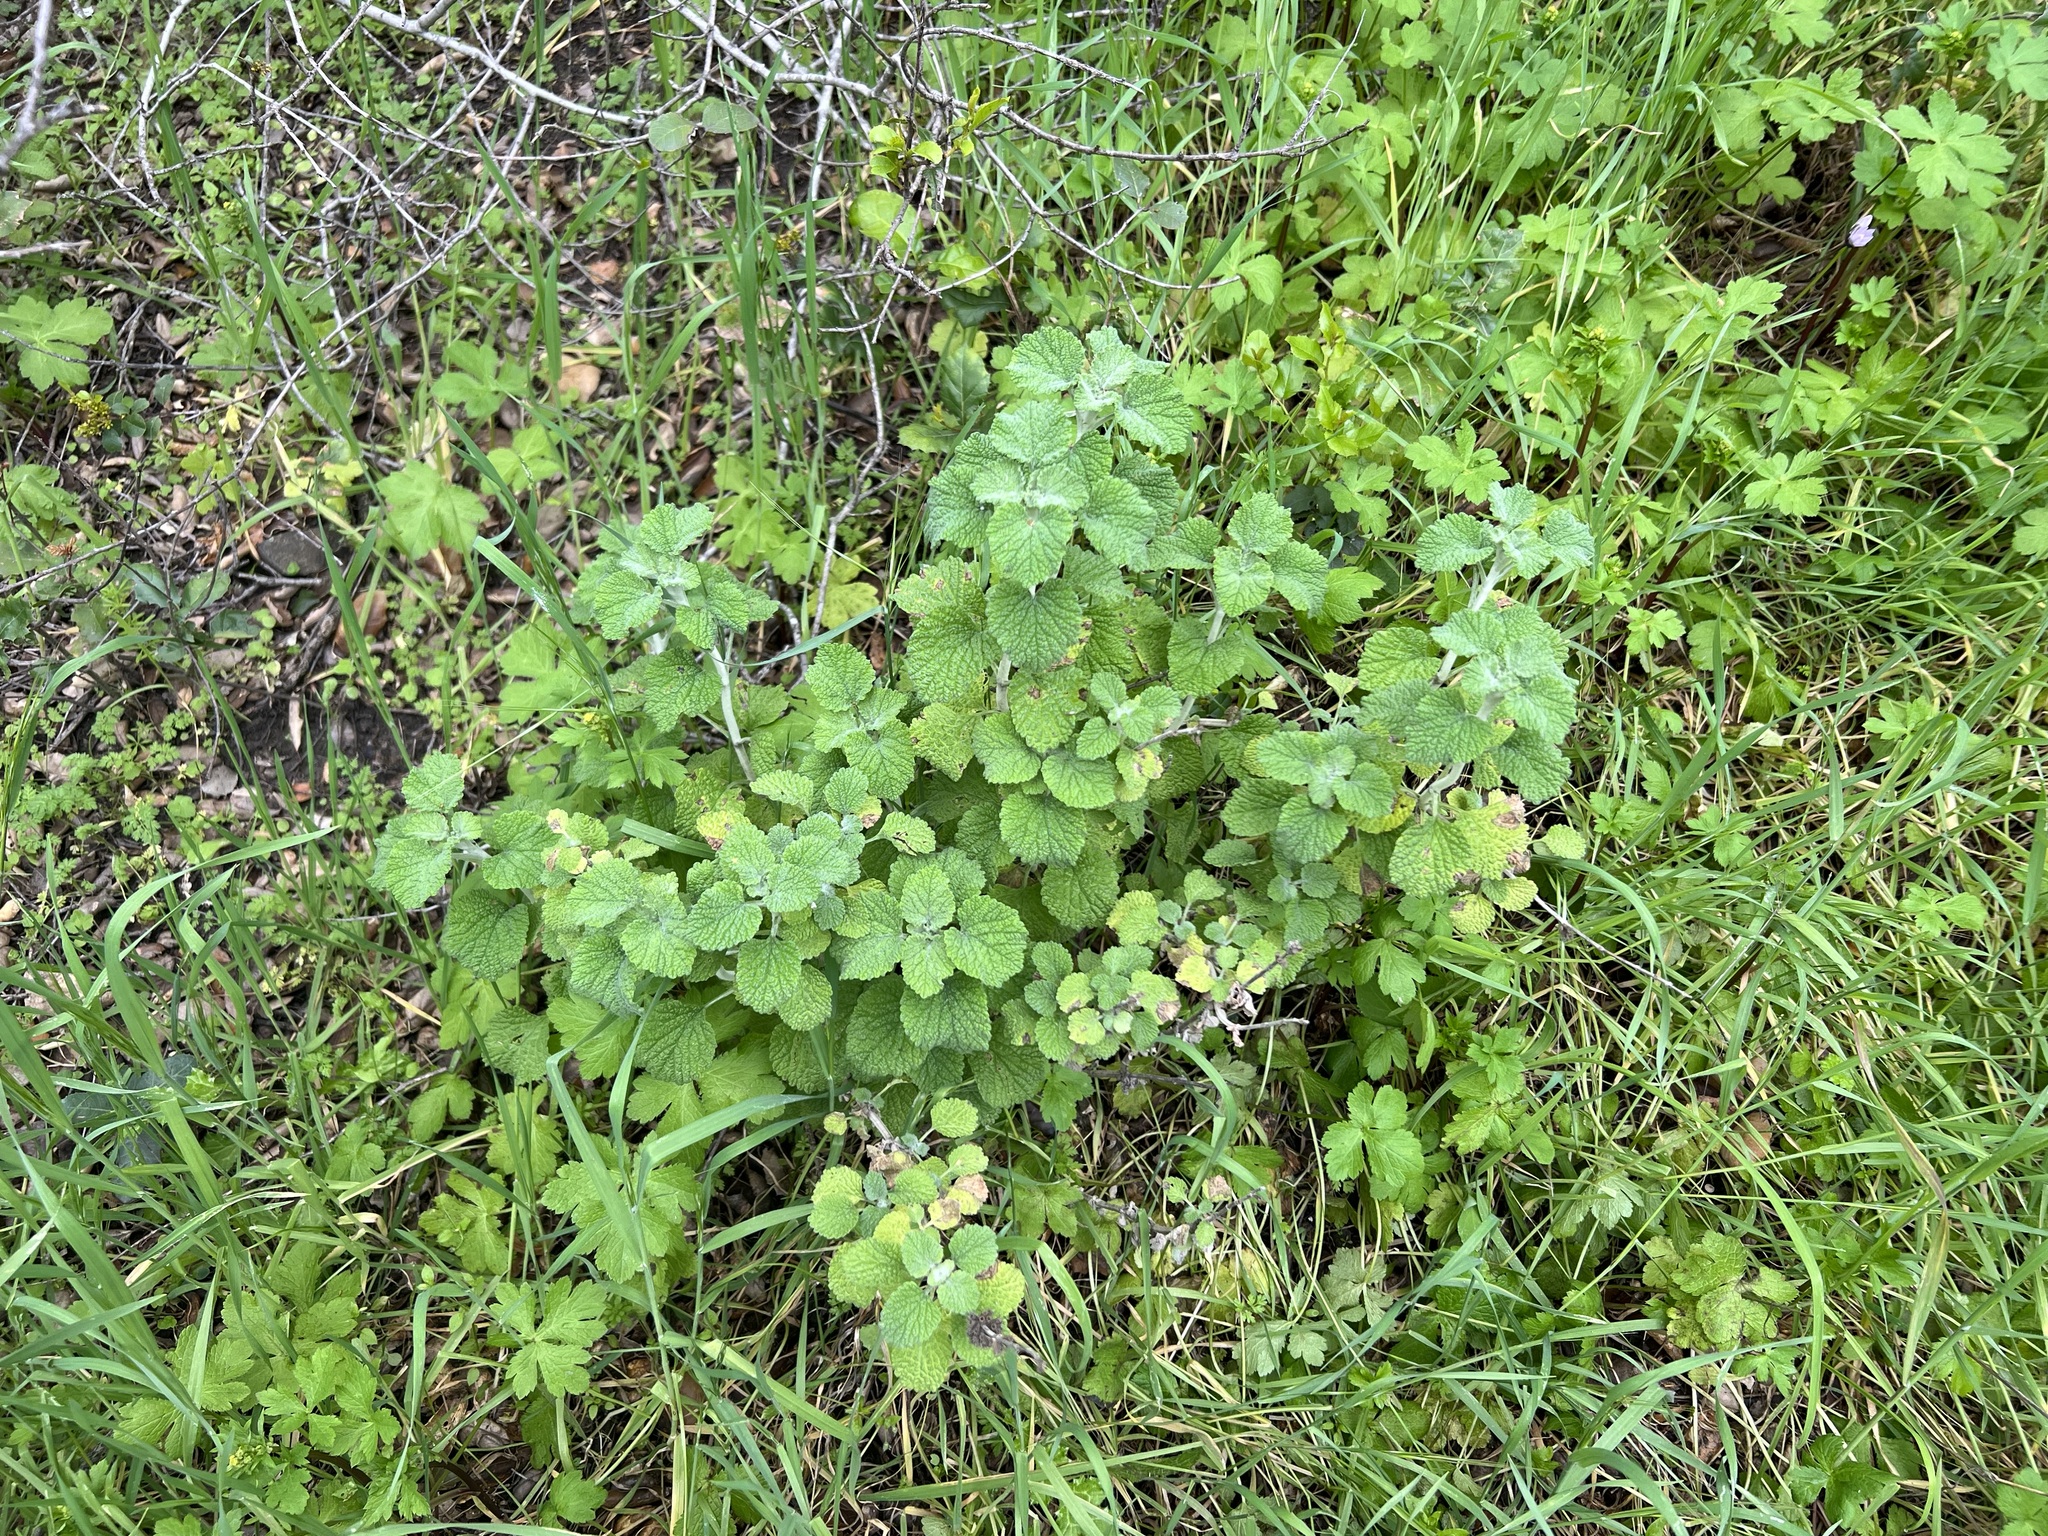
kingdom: Plantae
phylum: Tracheophyta
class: Magnoliopsida
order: Lamiales
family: Lamiaceae
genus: Marrubium
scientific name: Marrubium vulgare
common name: Horehound
